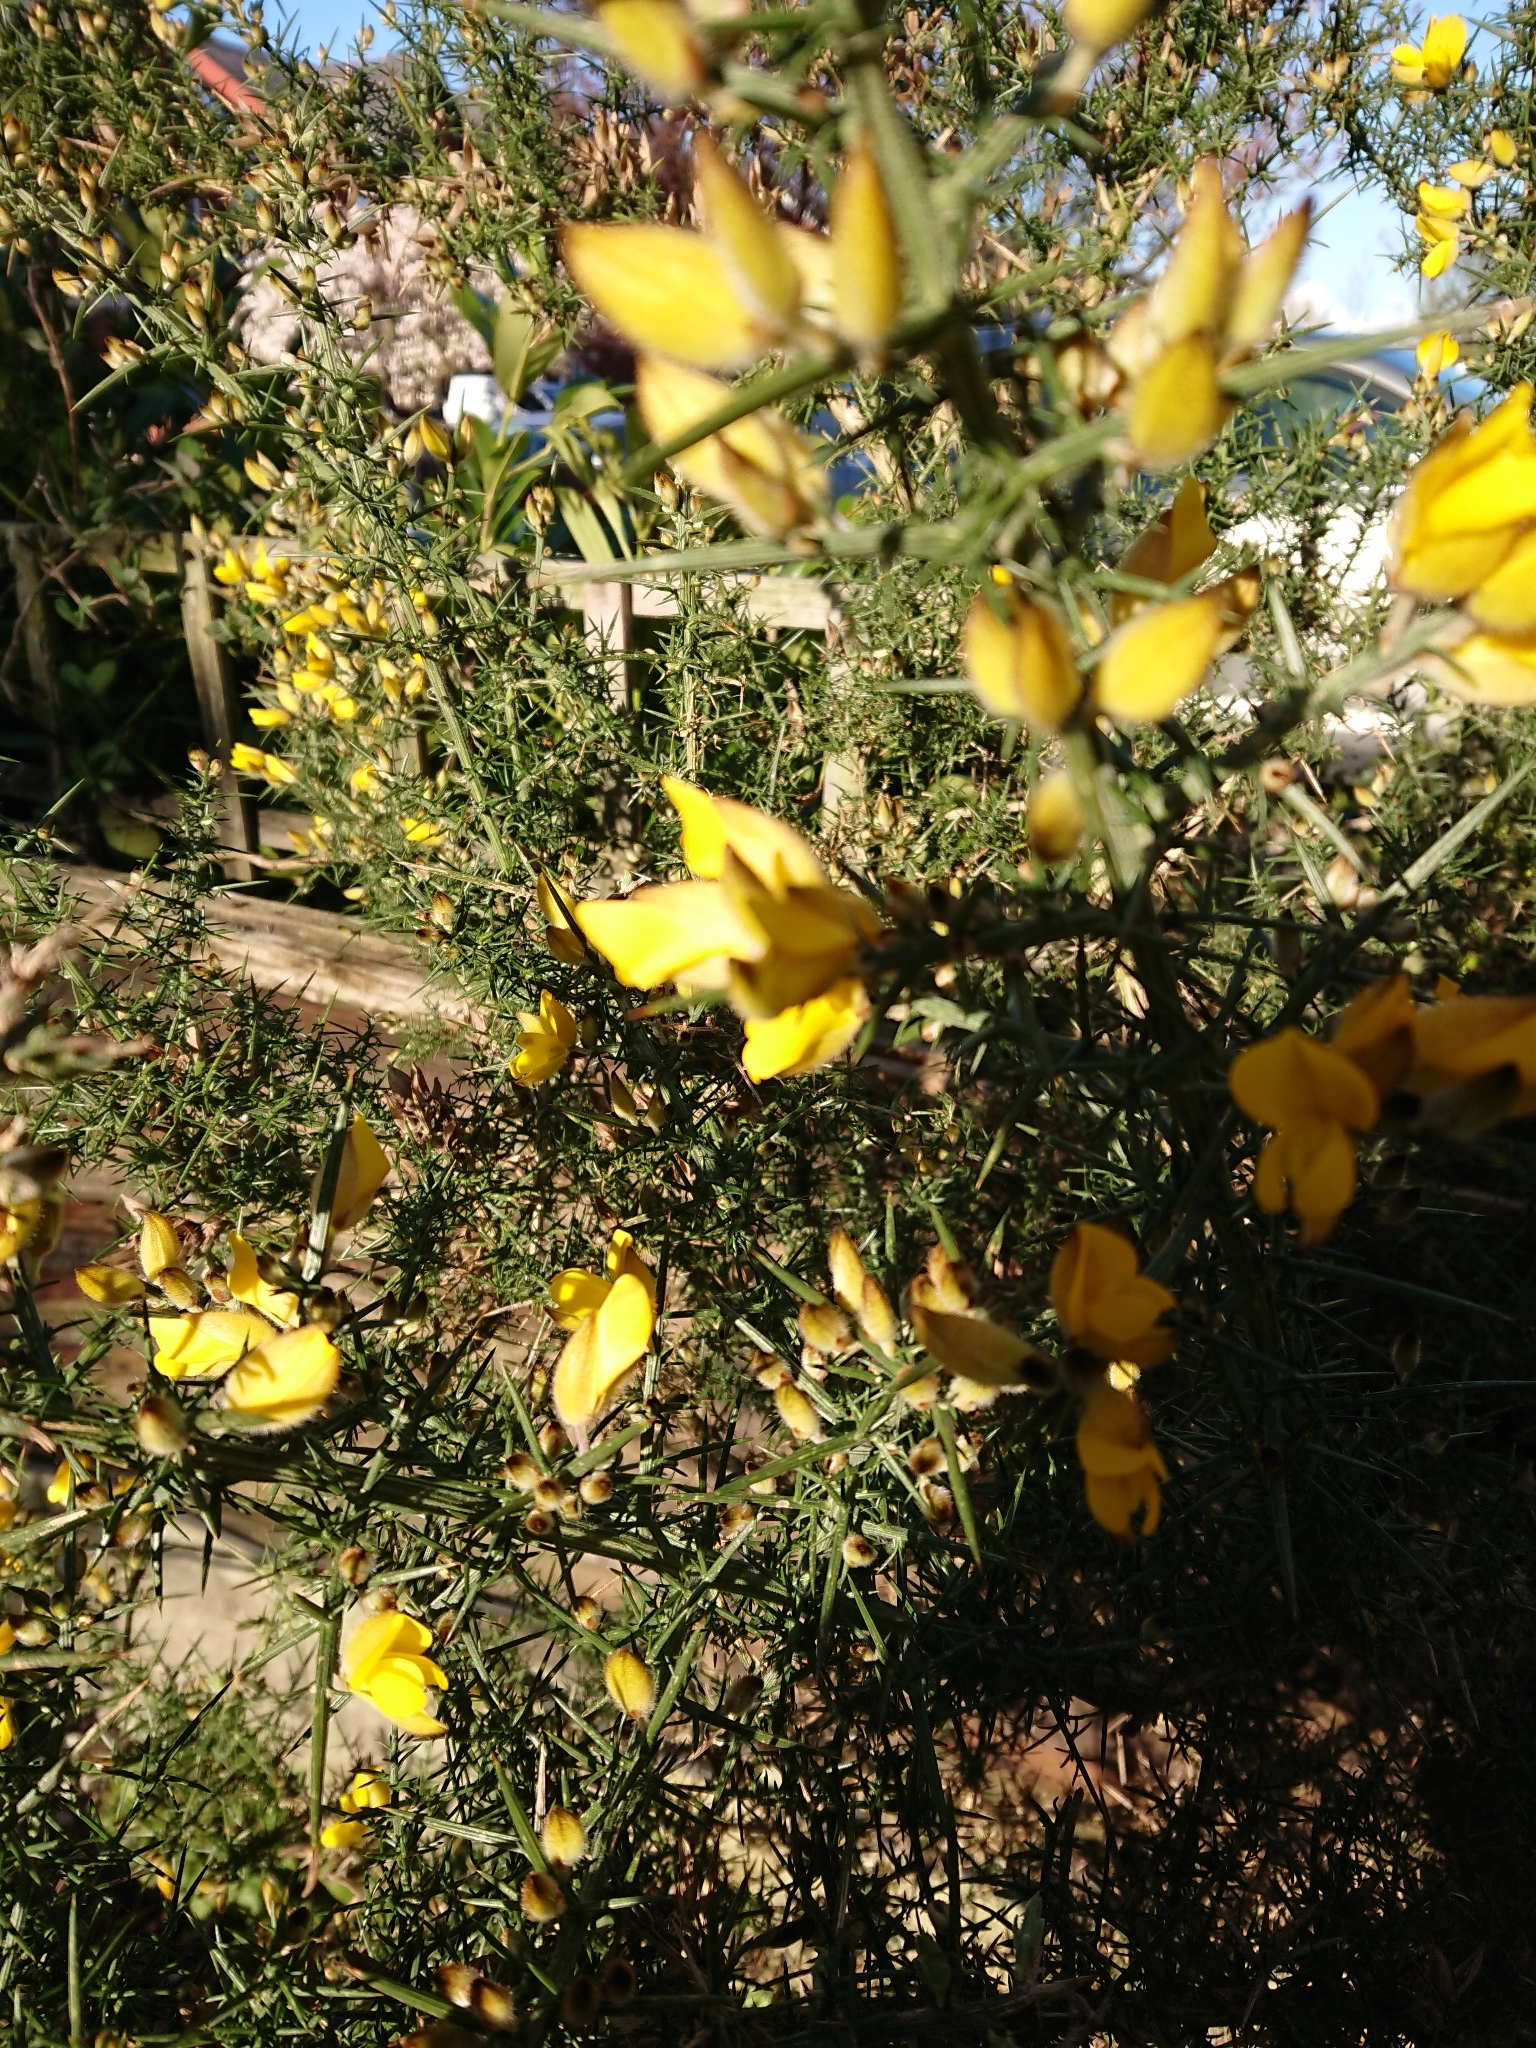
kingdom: Plantae
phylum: Tracheophyta
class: Magnoliopsida
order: Fabales
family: Fabaceae
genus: Ulex
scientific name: Ulex europaeus
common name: Common gorse
